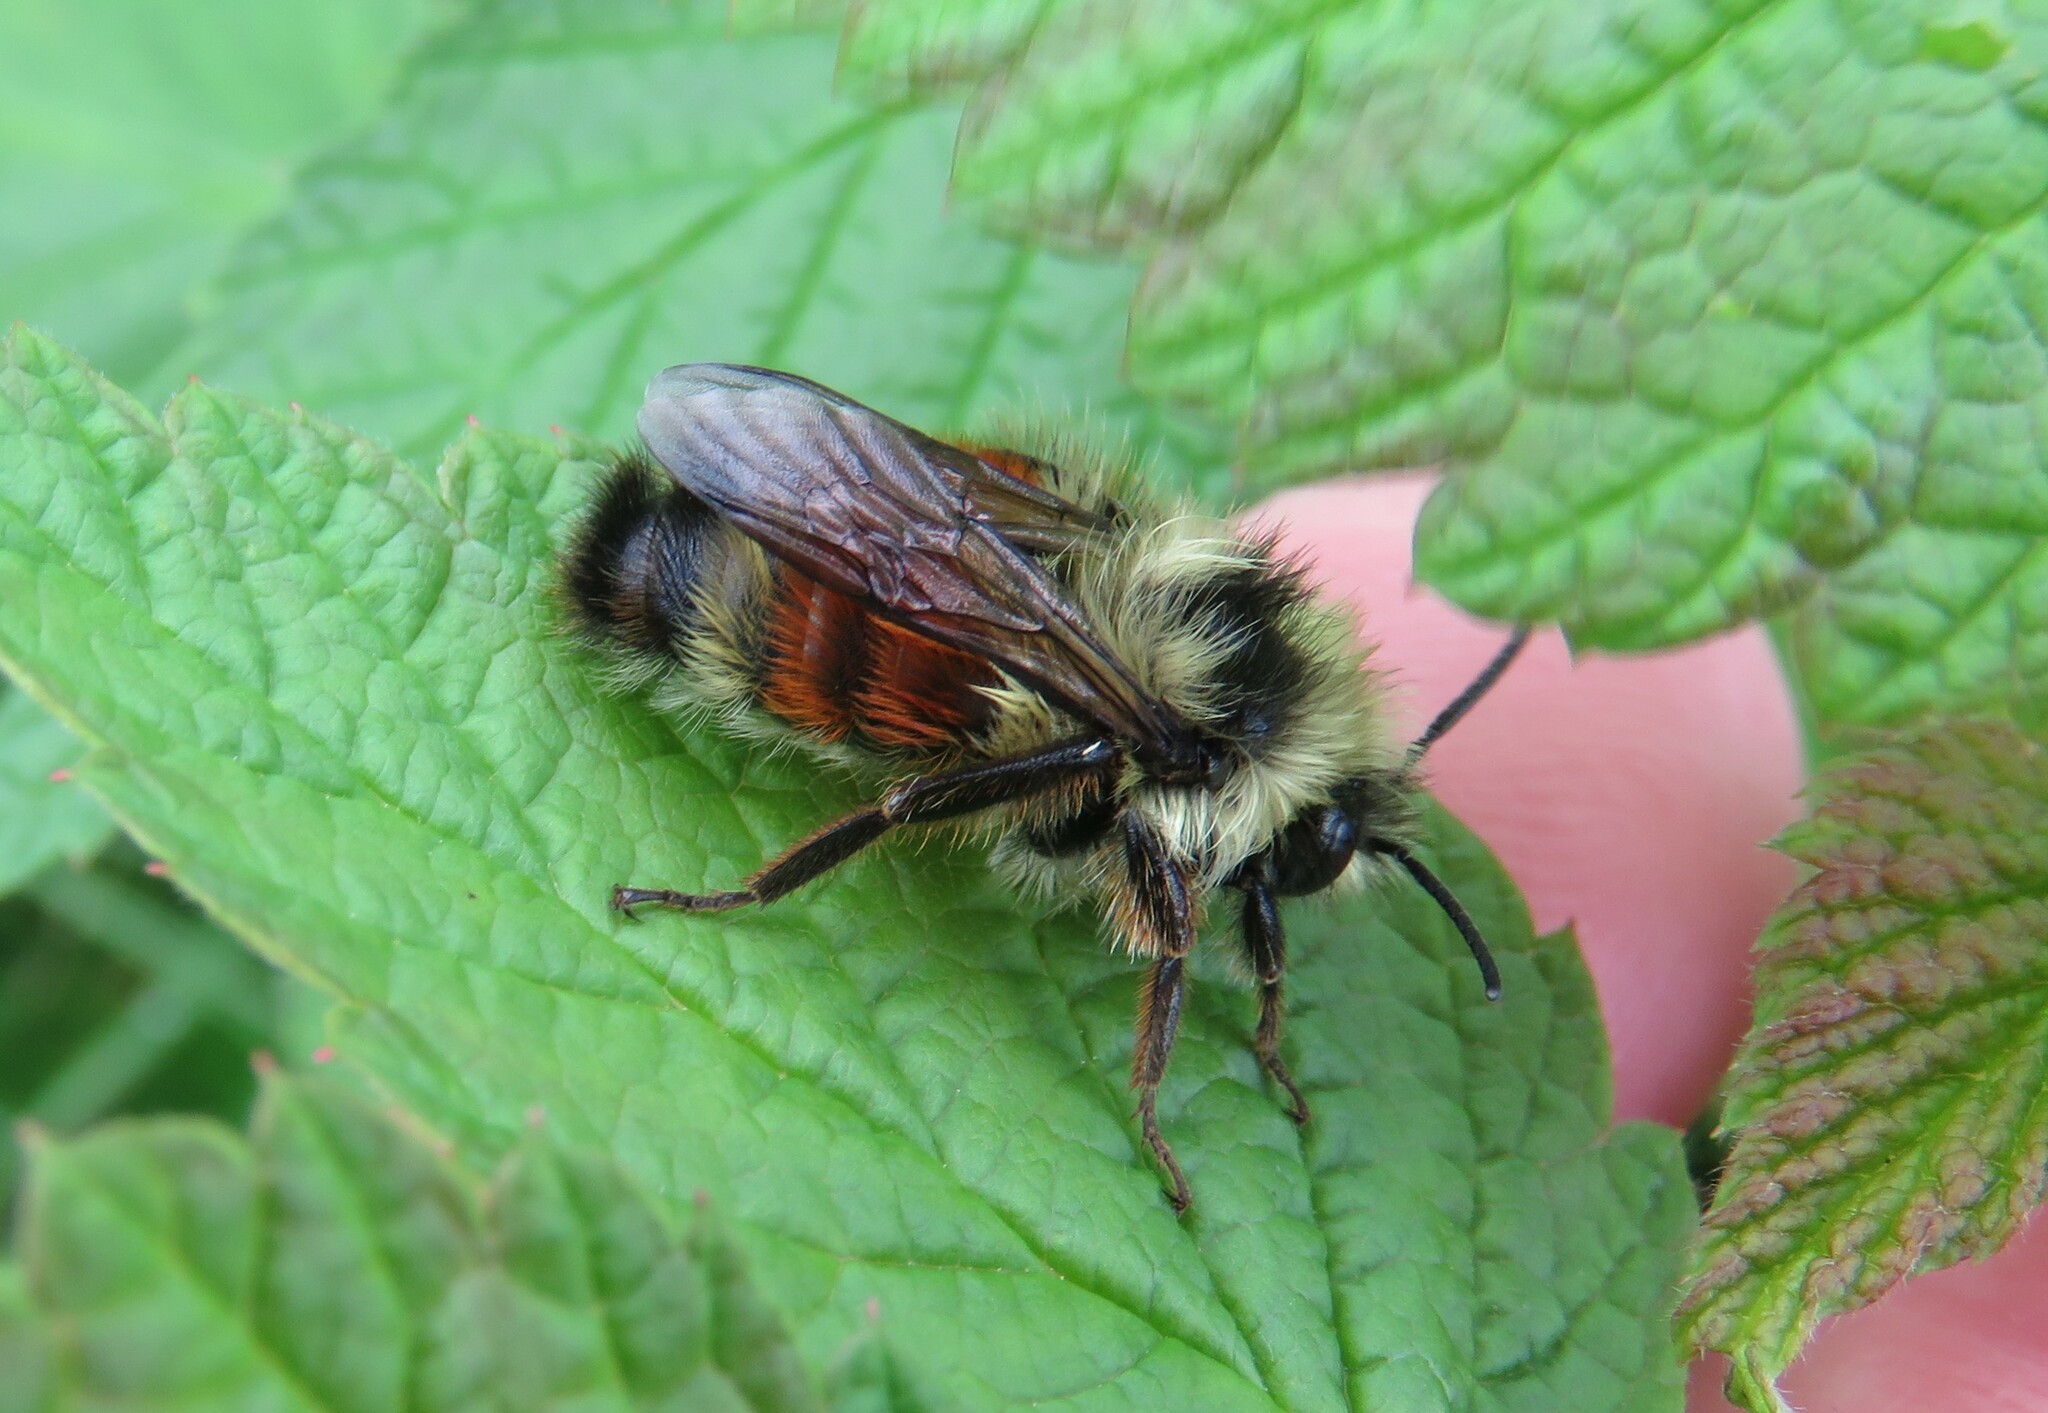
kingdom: Animalia
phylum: Arthropoda
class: Insecta
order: Hymenoptera
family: Apidae
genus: Bombus
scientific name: Bombus ternarius
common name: Tri-colored bumble bee
